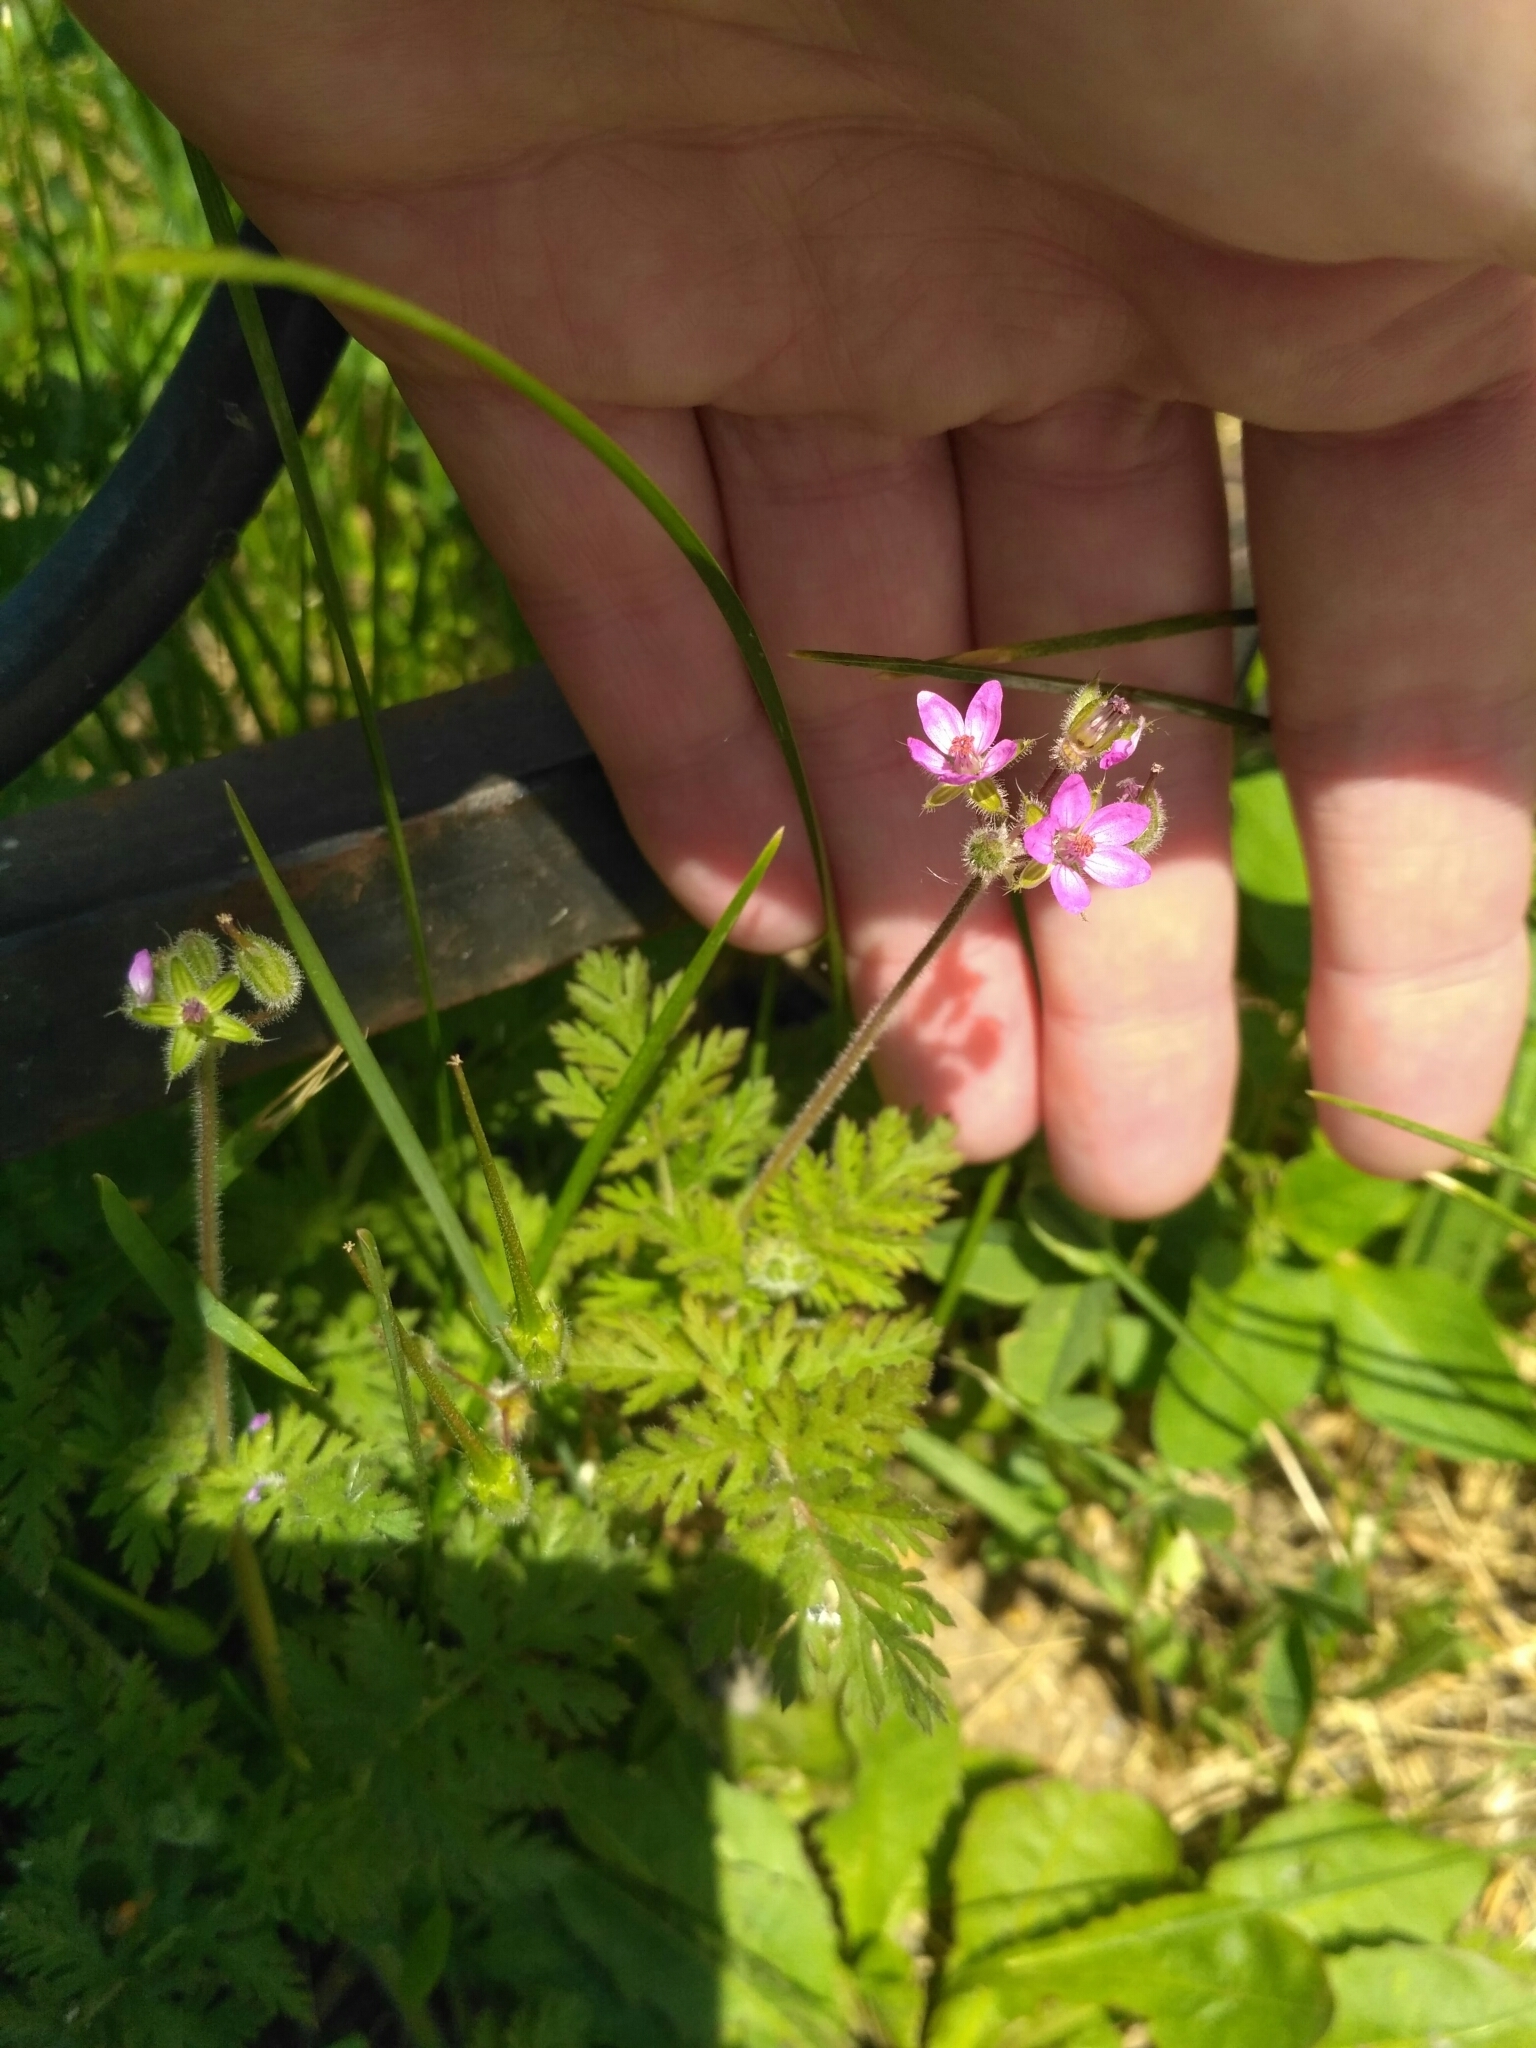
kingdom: Plantae
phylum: Tracheophyta
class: Magnoliopsida
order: Geraniales
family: Geraniaceae
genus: Erodium
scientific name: Erodium cicutarium
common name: Common stork's-bill
